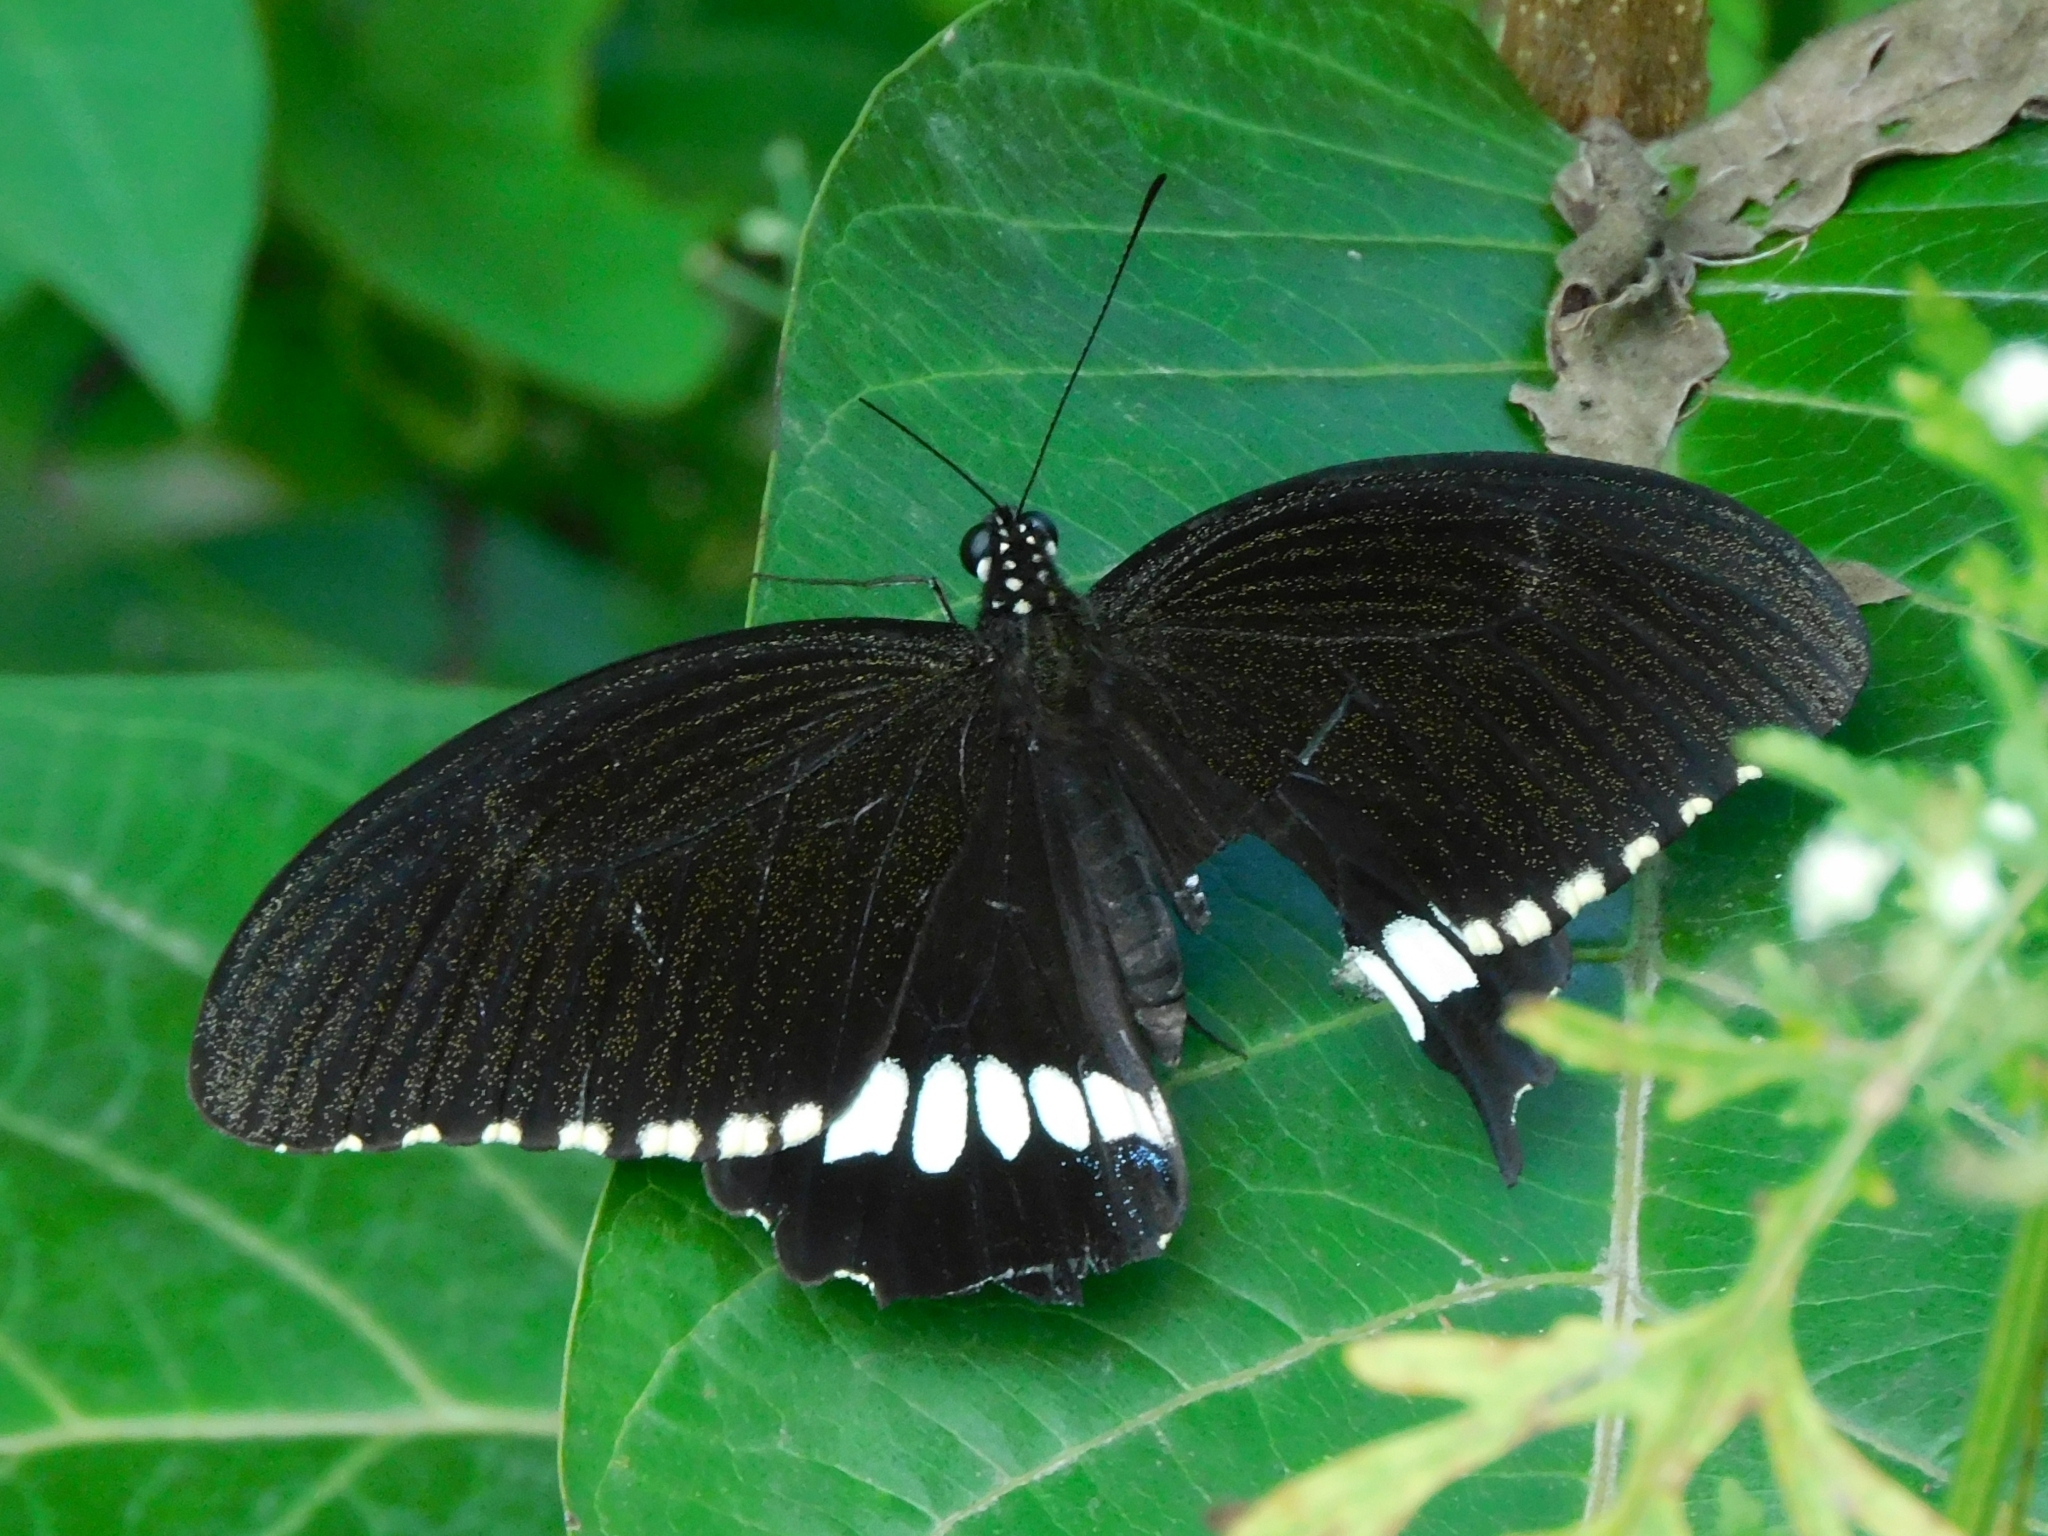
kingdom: Animalia
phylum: Arthropoda
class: Insecta
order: Lepidoptera
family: Papilionidae
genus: Papilio
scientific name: Papilio polytes
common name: Common mormon
